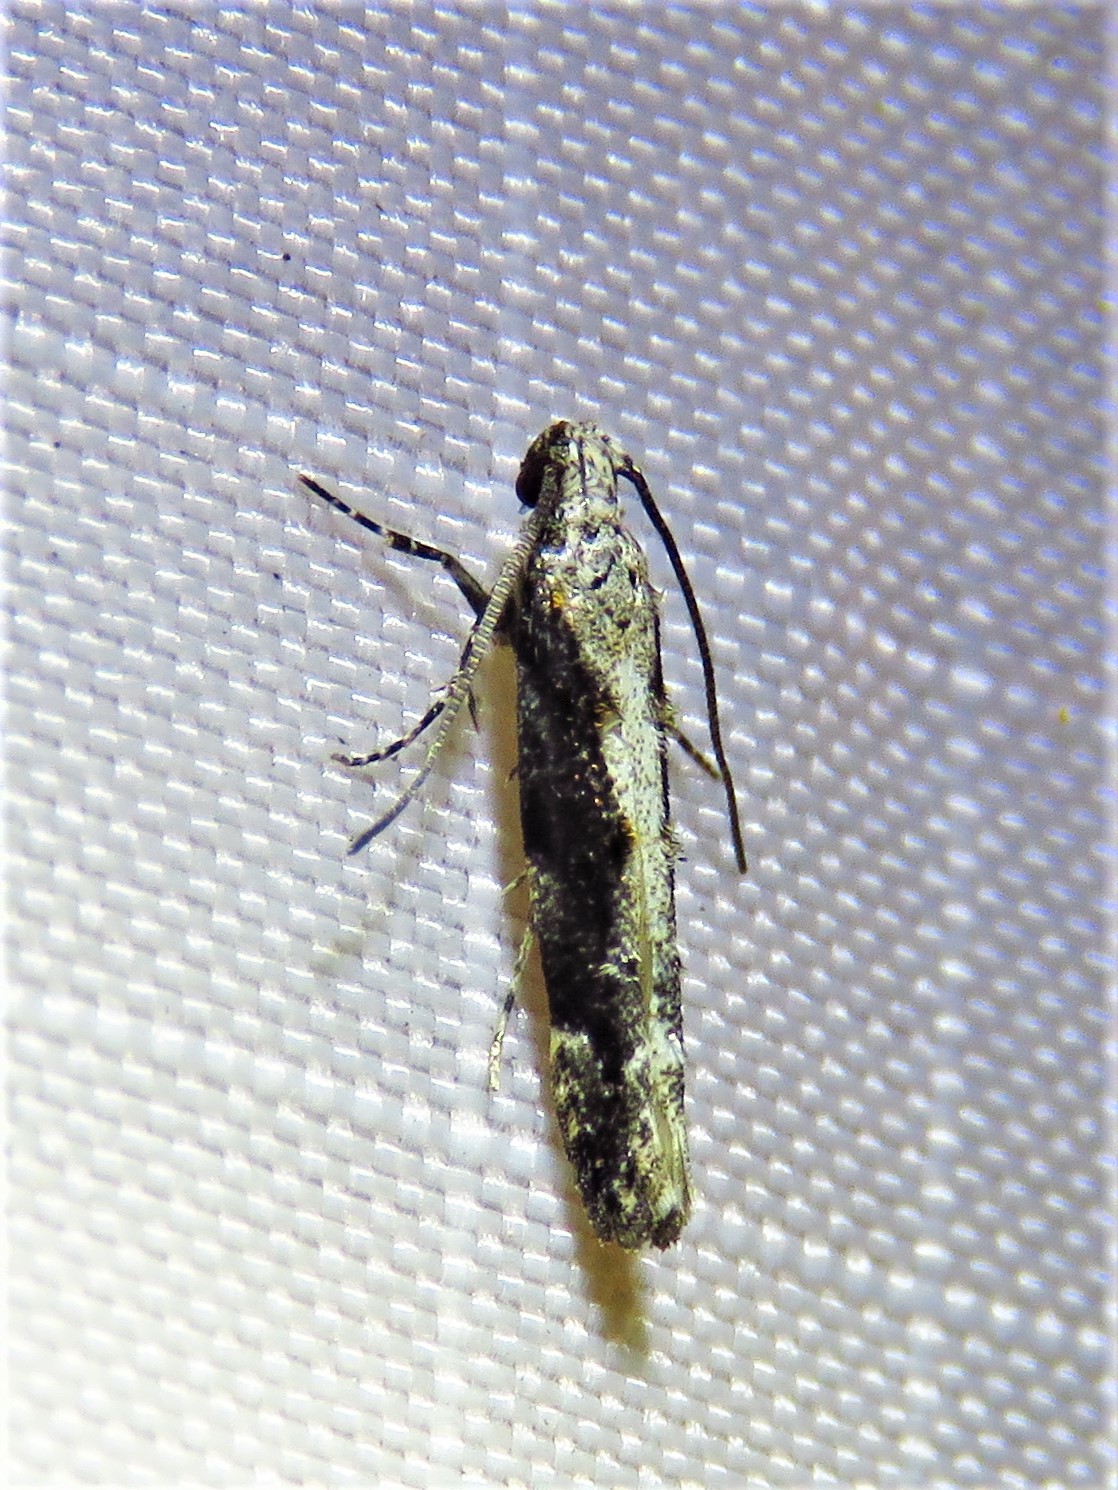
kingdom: Animalia
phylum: Arthropoda
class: Insecta
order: Lepidoptera
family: Gelechiidae
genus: Coleotechnites
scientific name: Coleotechnites florae
